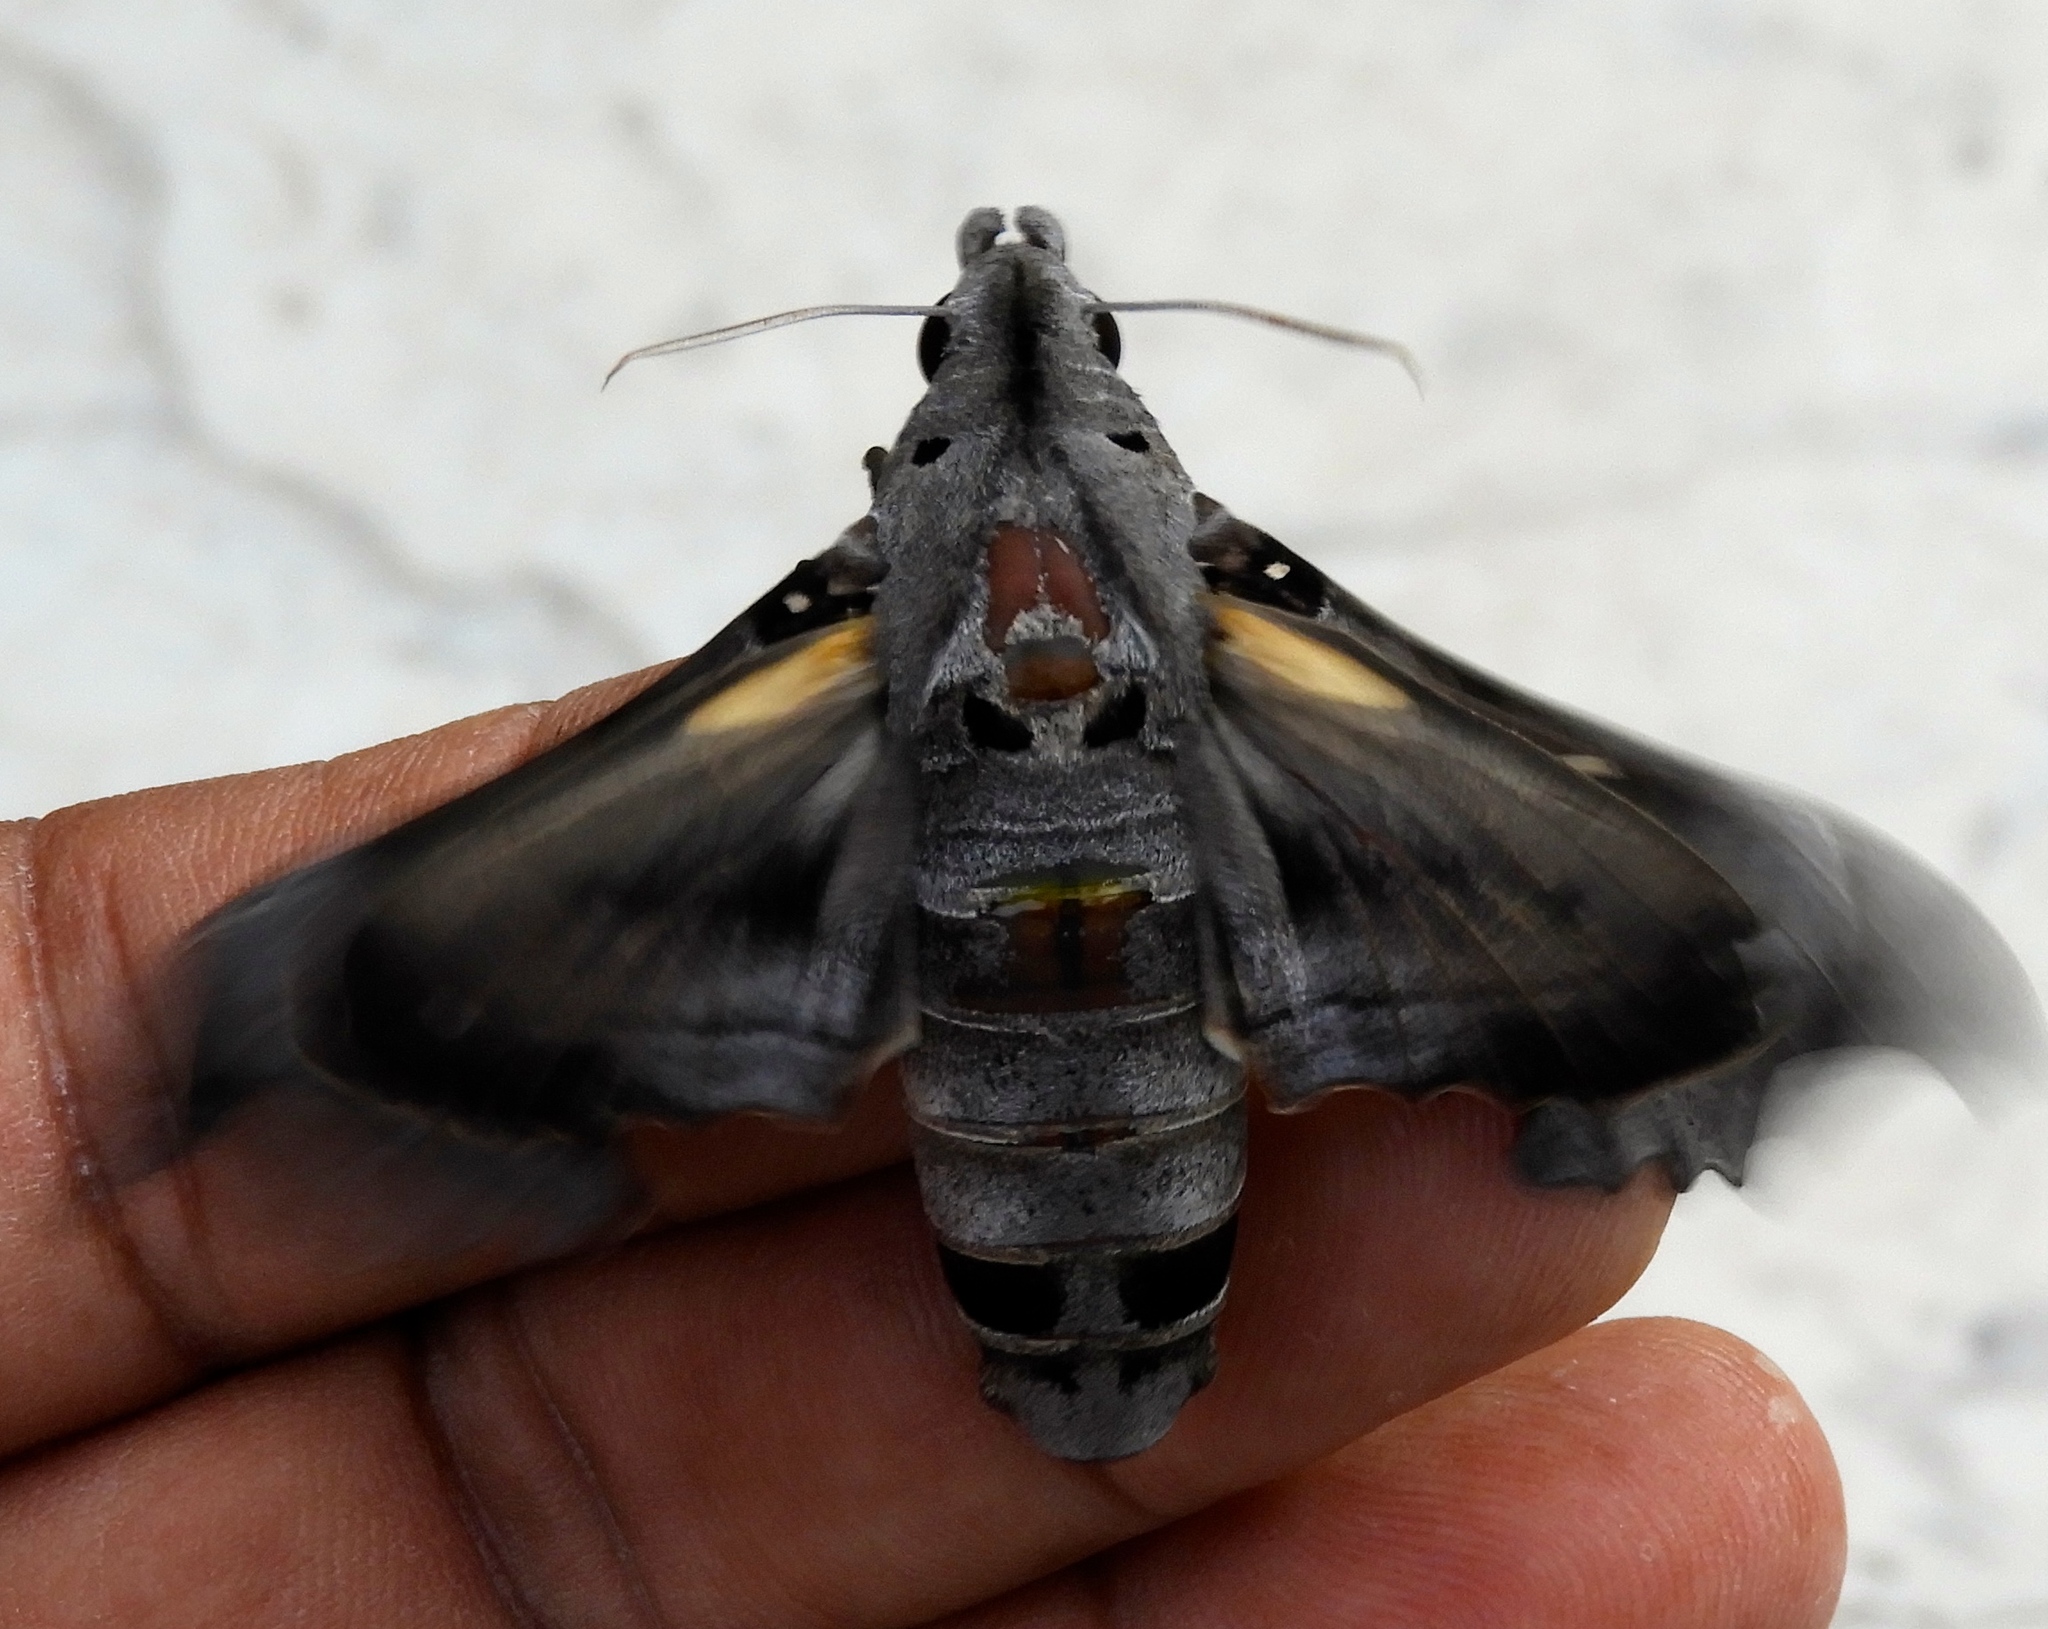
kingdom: Animalia
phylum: Arthropoda
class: Insecta
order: Lepidoptera
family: Sphingidae
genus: Madoryx
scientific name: Madoryx
